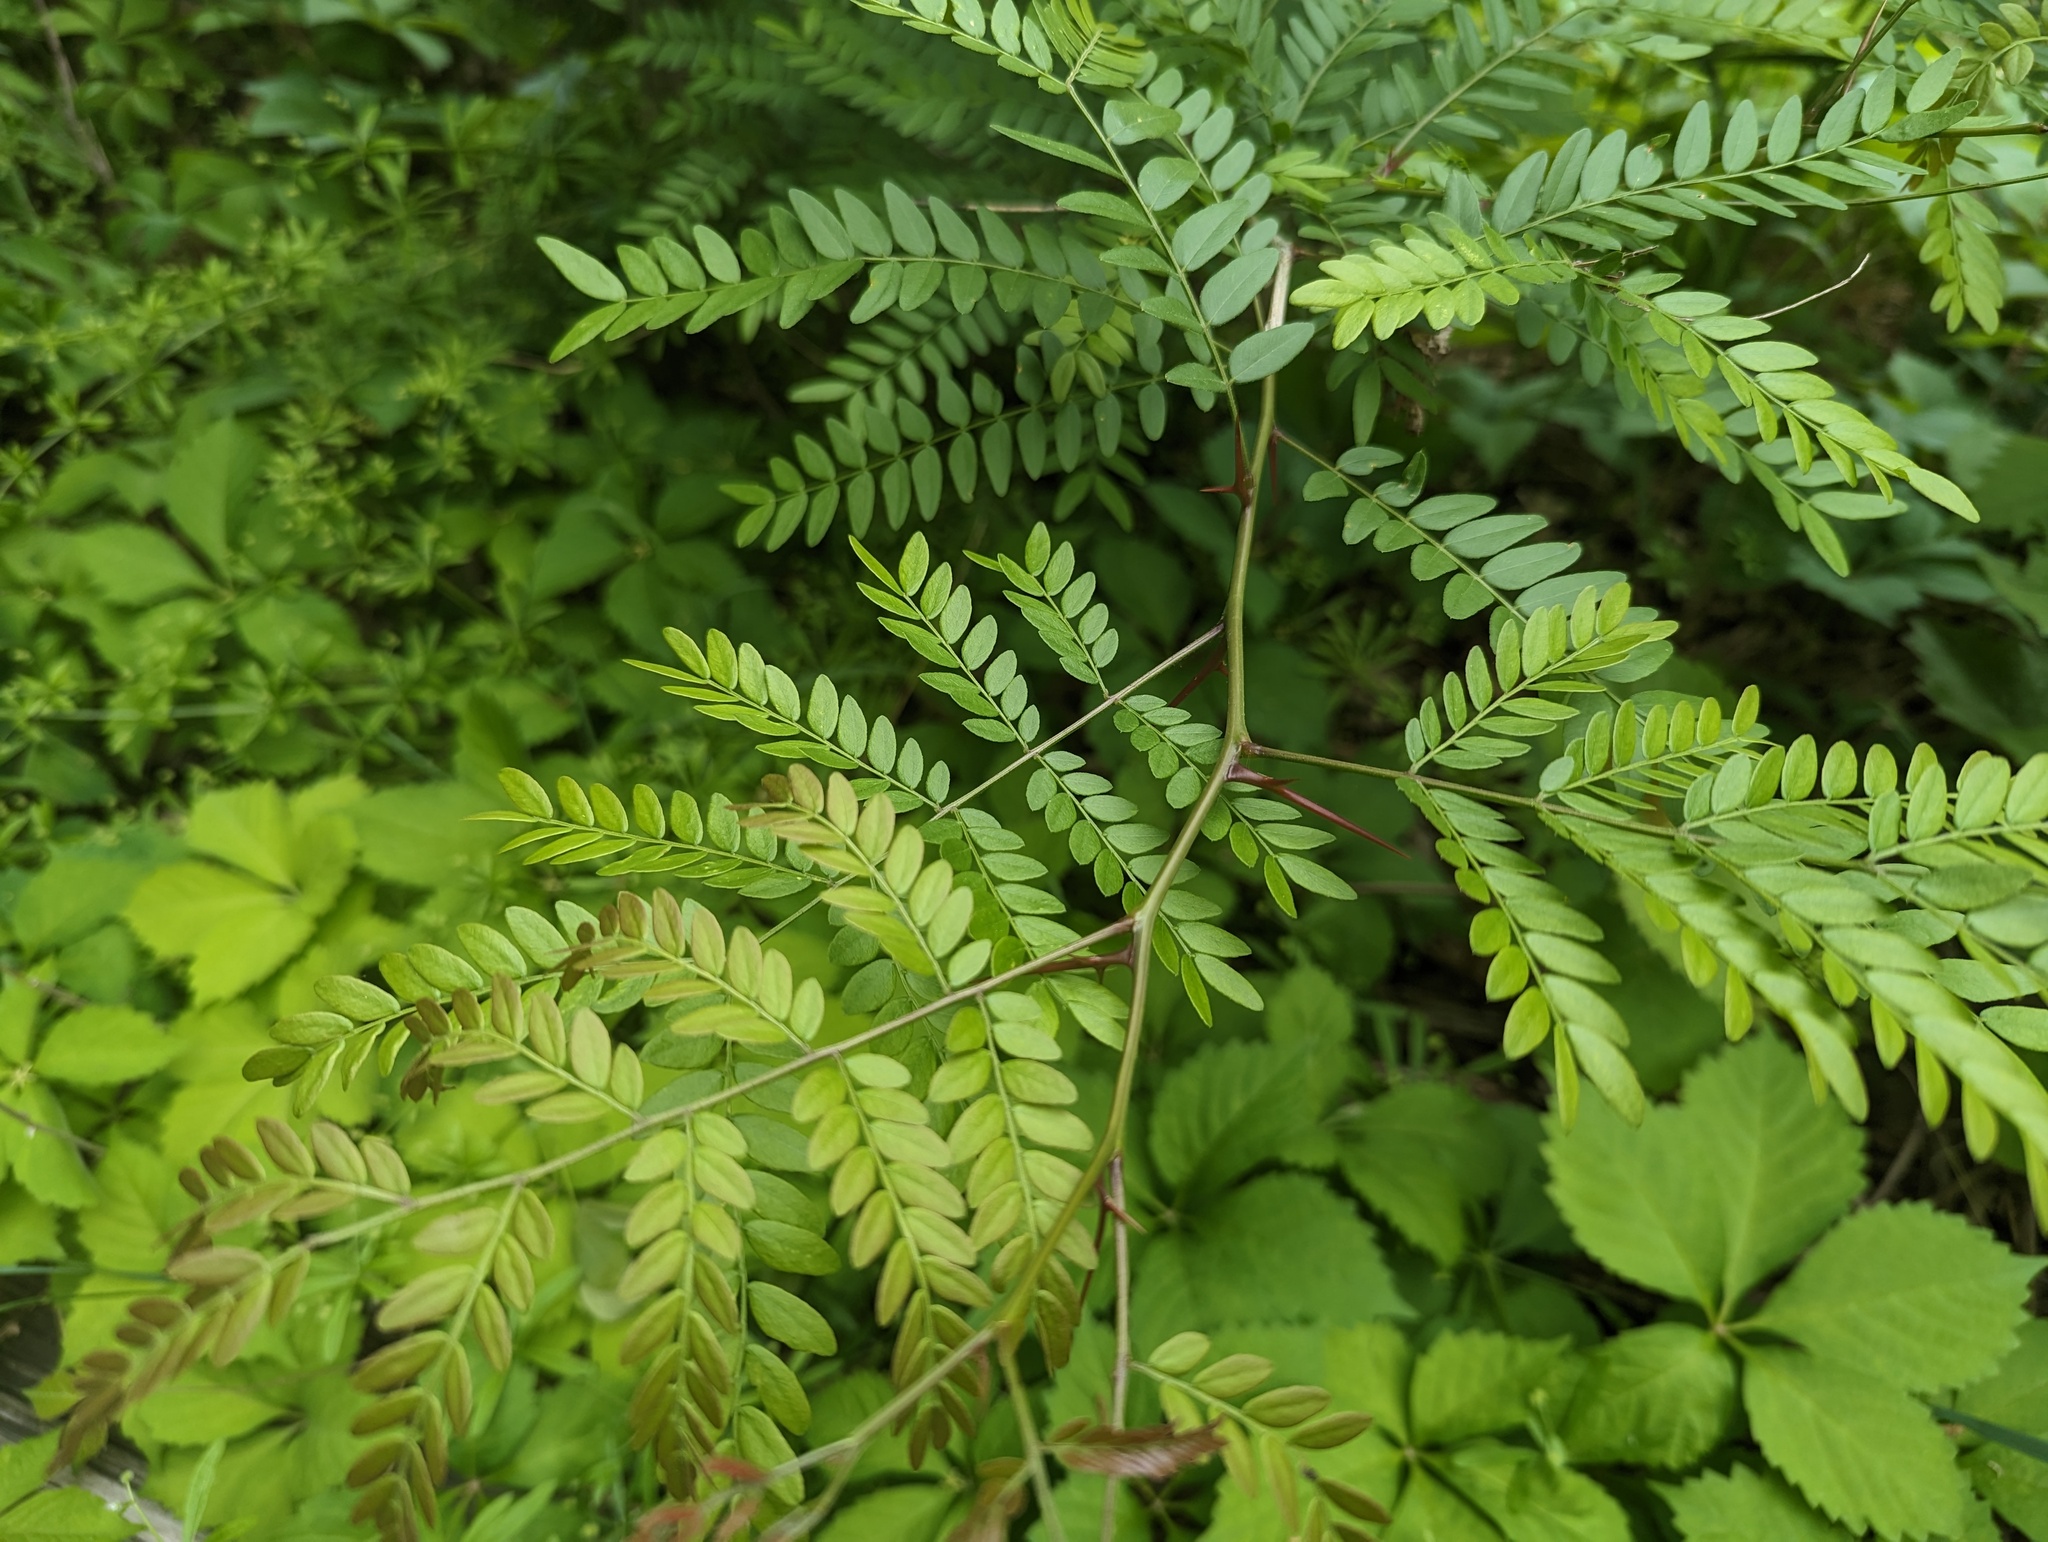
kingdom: Plantae
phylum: Tracheophyta
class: Magnoliopsida
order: Fabales
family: Fabaceae
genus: Gleditsia
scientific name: Gleditsia triacanthos
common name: Common honeylocust
